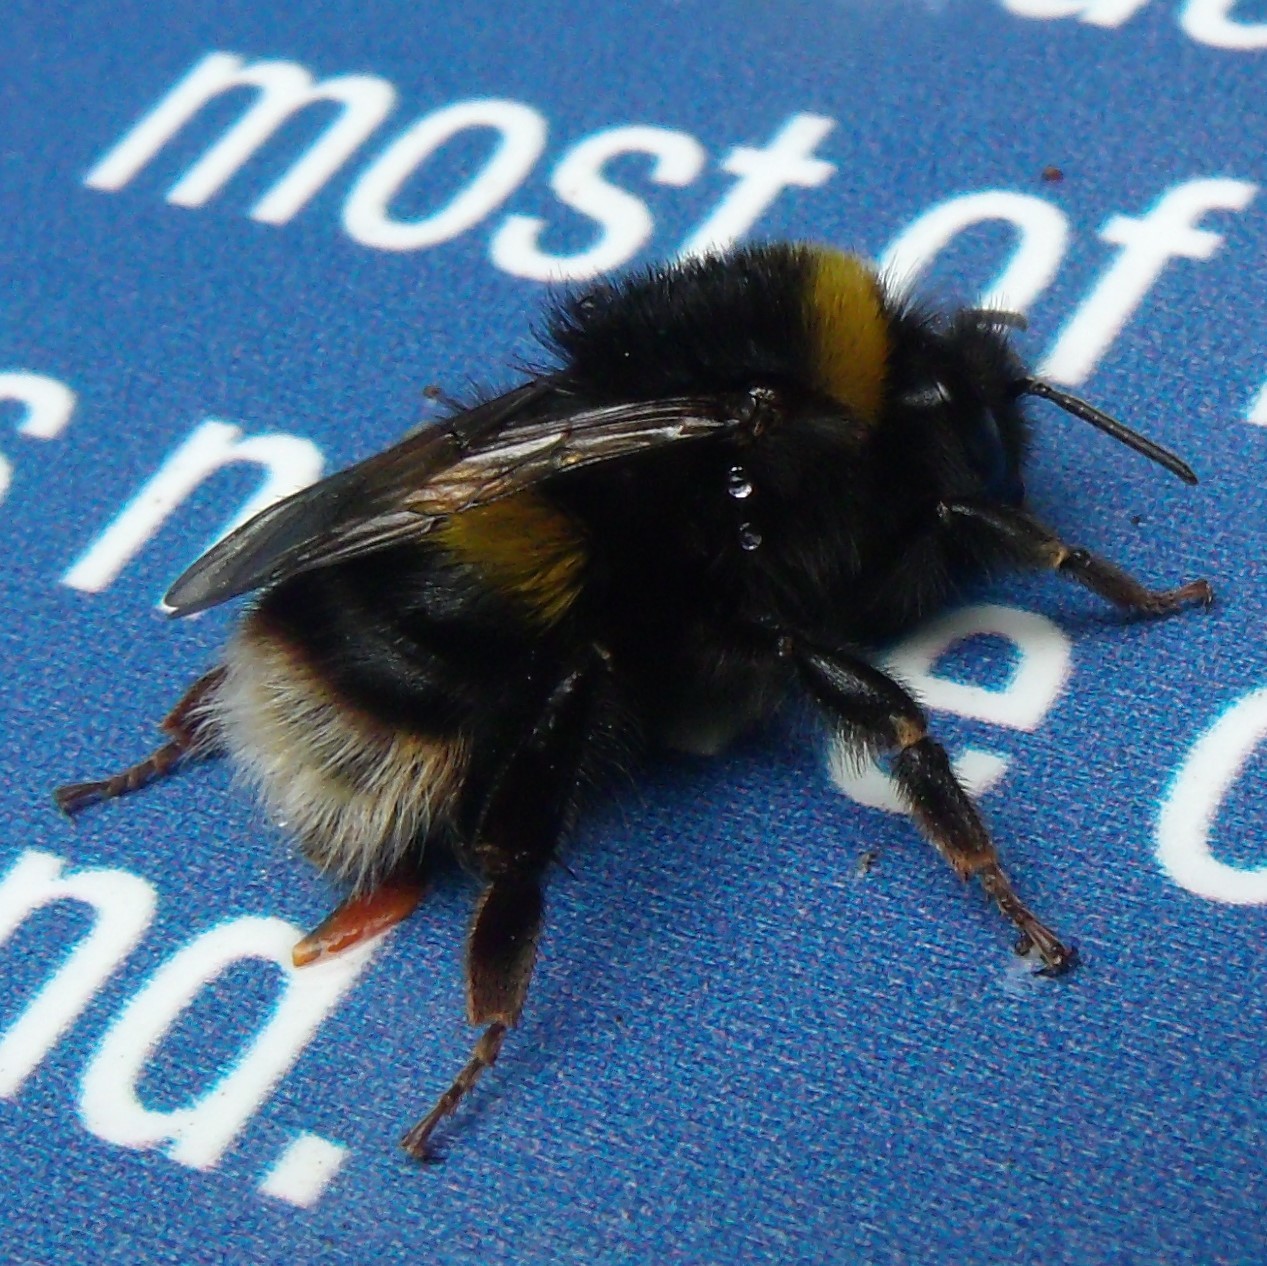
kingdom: Animalia
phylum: Arthropoda
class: Insecta
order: Hymenoptera
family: Apidae
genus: Bombus
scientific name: Bombus terrestris
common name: Buff-tailed bumblebee
